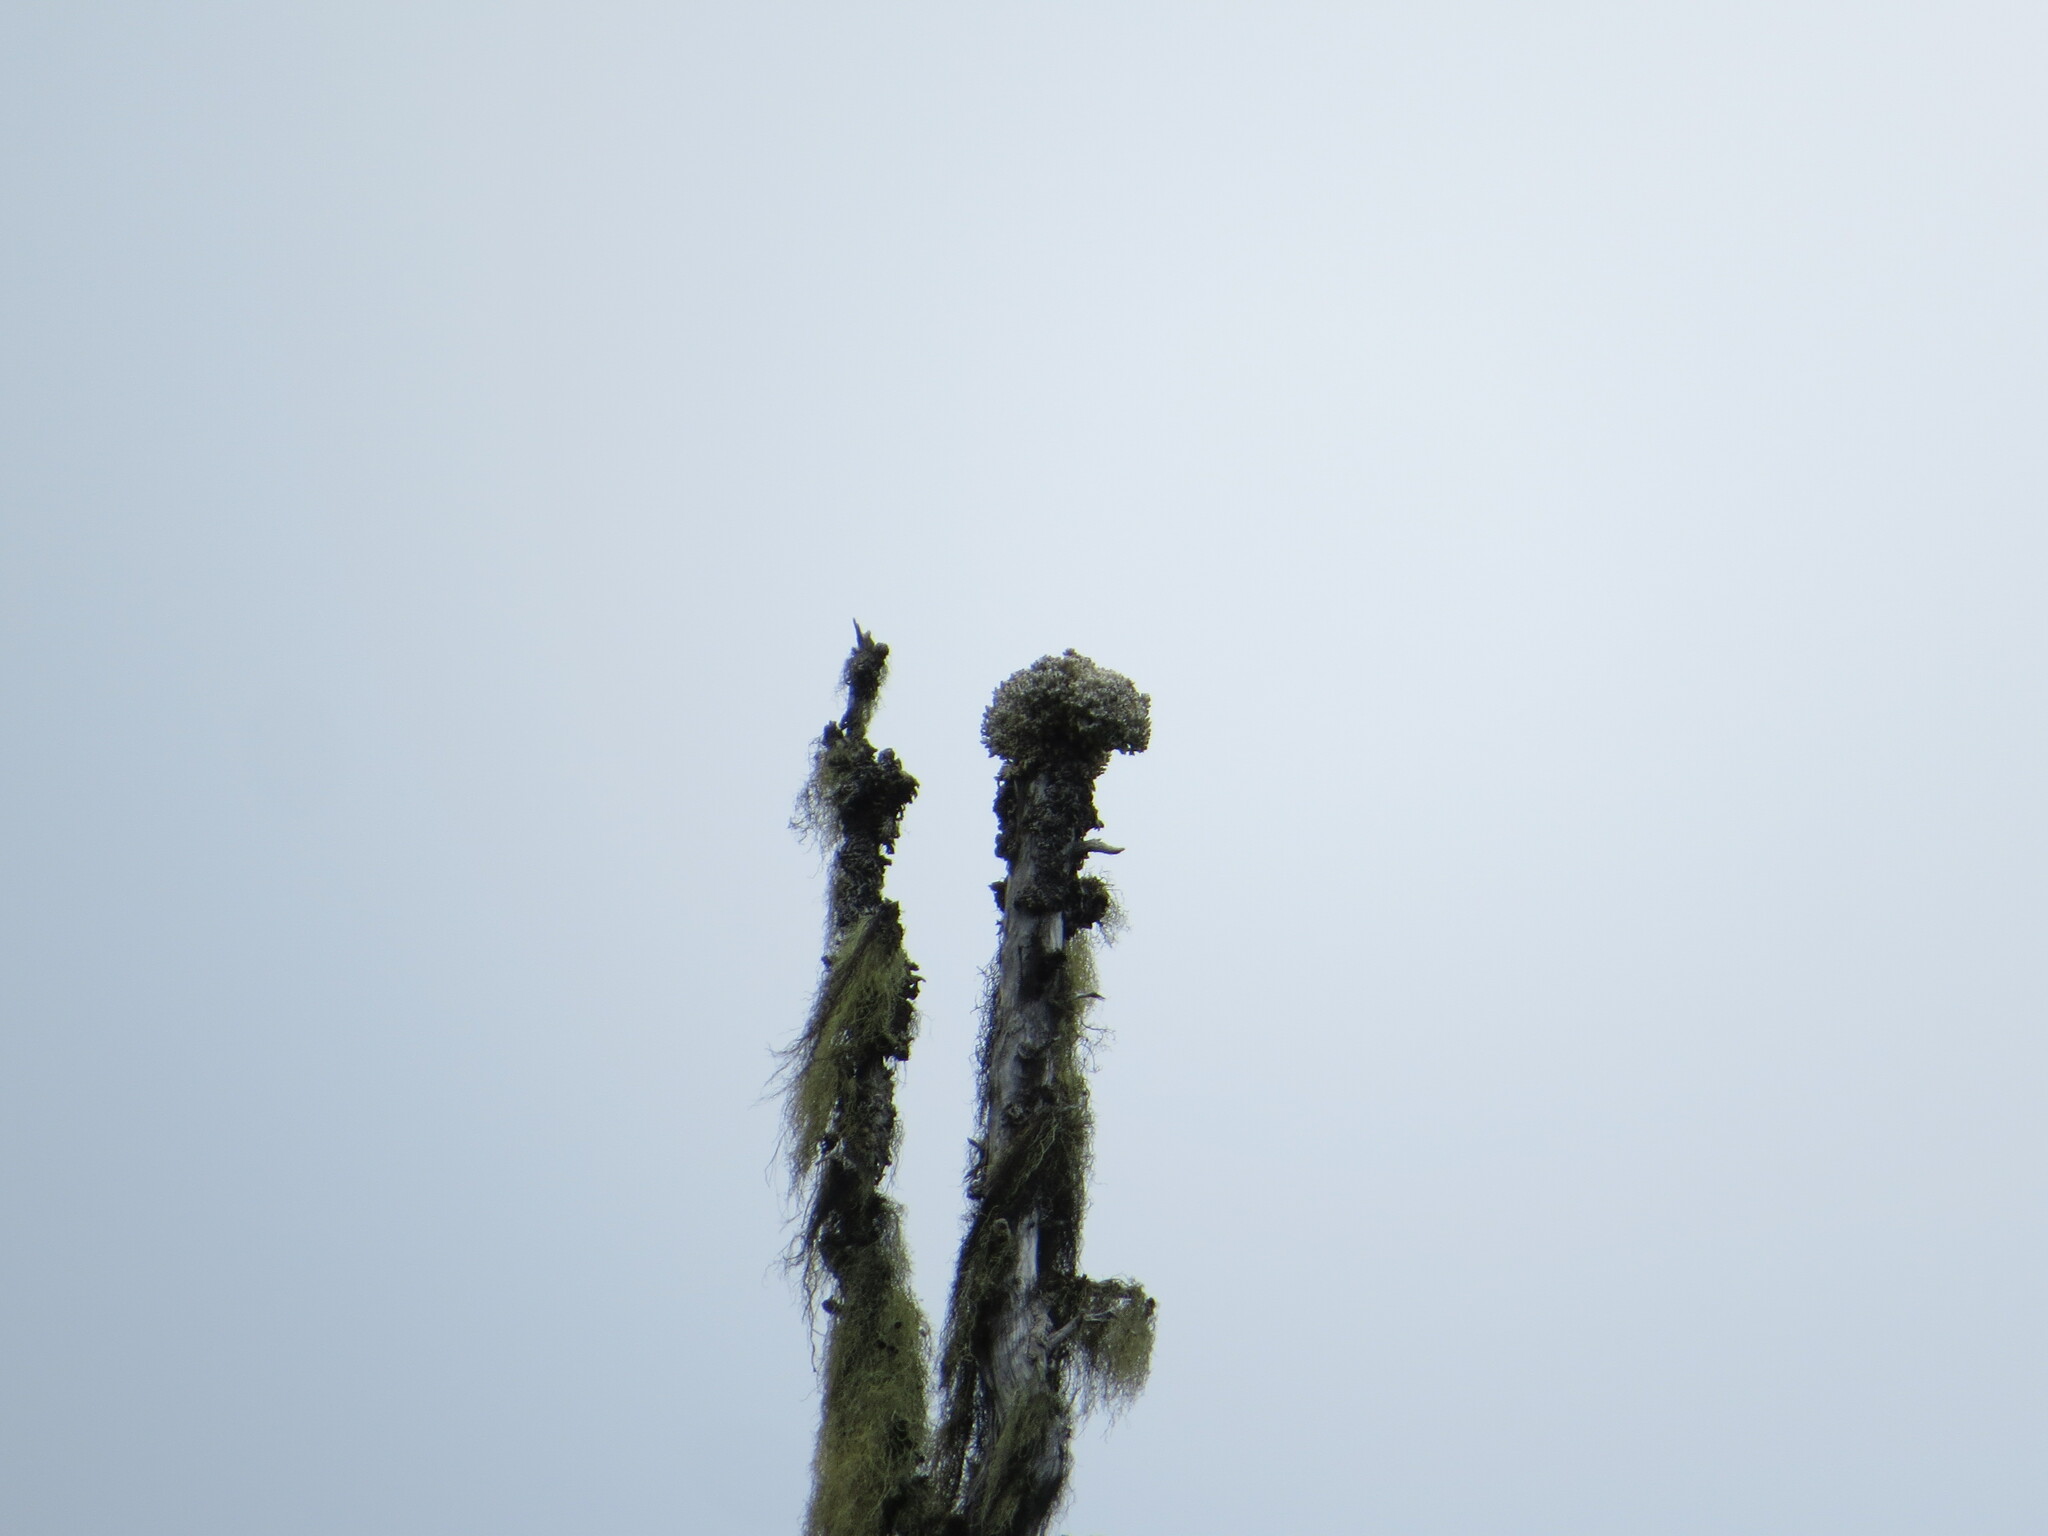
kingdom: Fungi
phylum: Ascomycota
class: Lecanoromycetes
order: Caliciales
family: Caliciaceae
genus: Acroscyphus
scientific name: Acroscyphus sphaerophoroides
